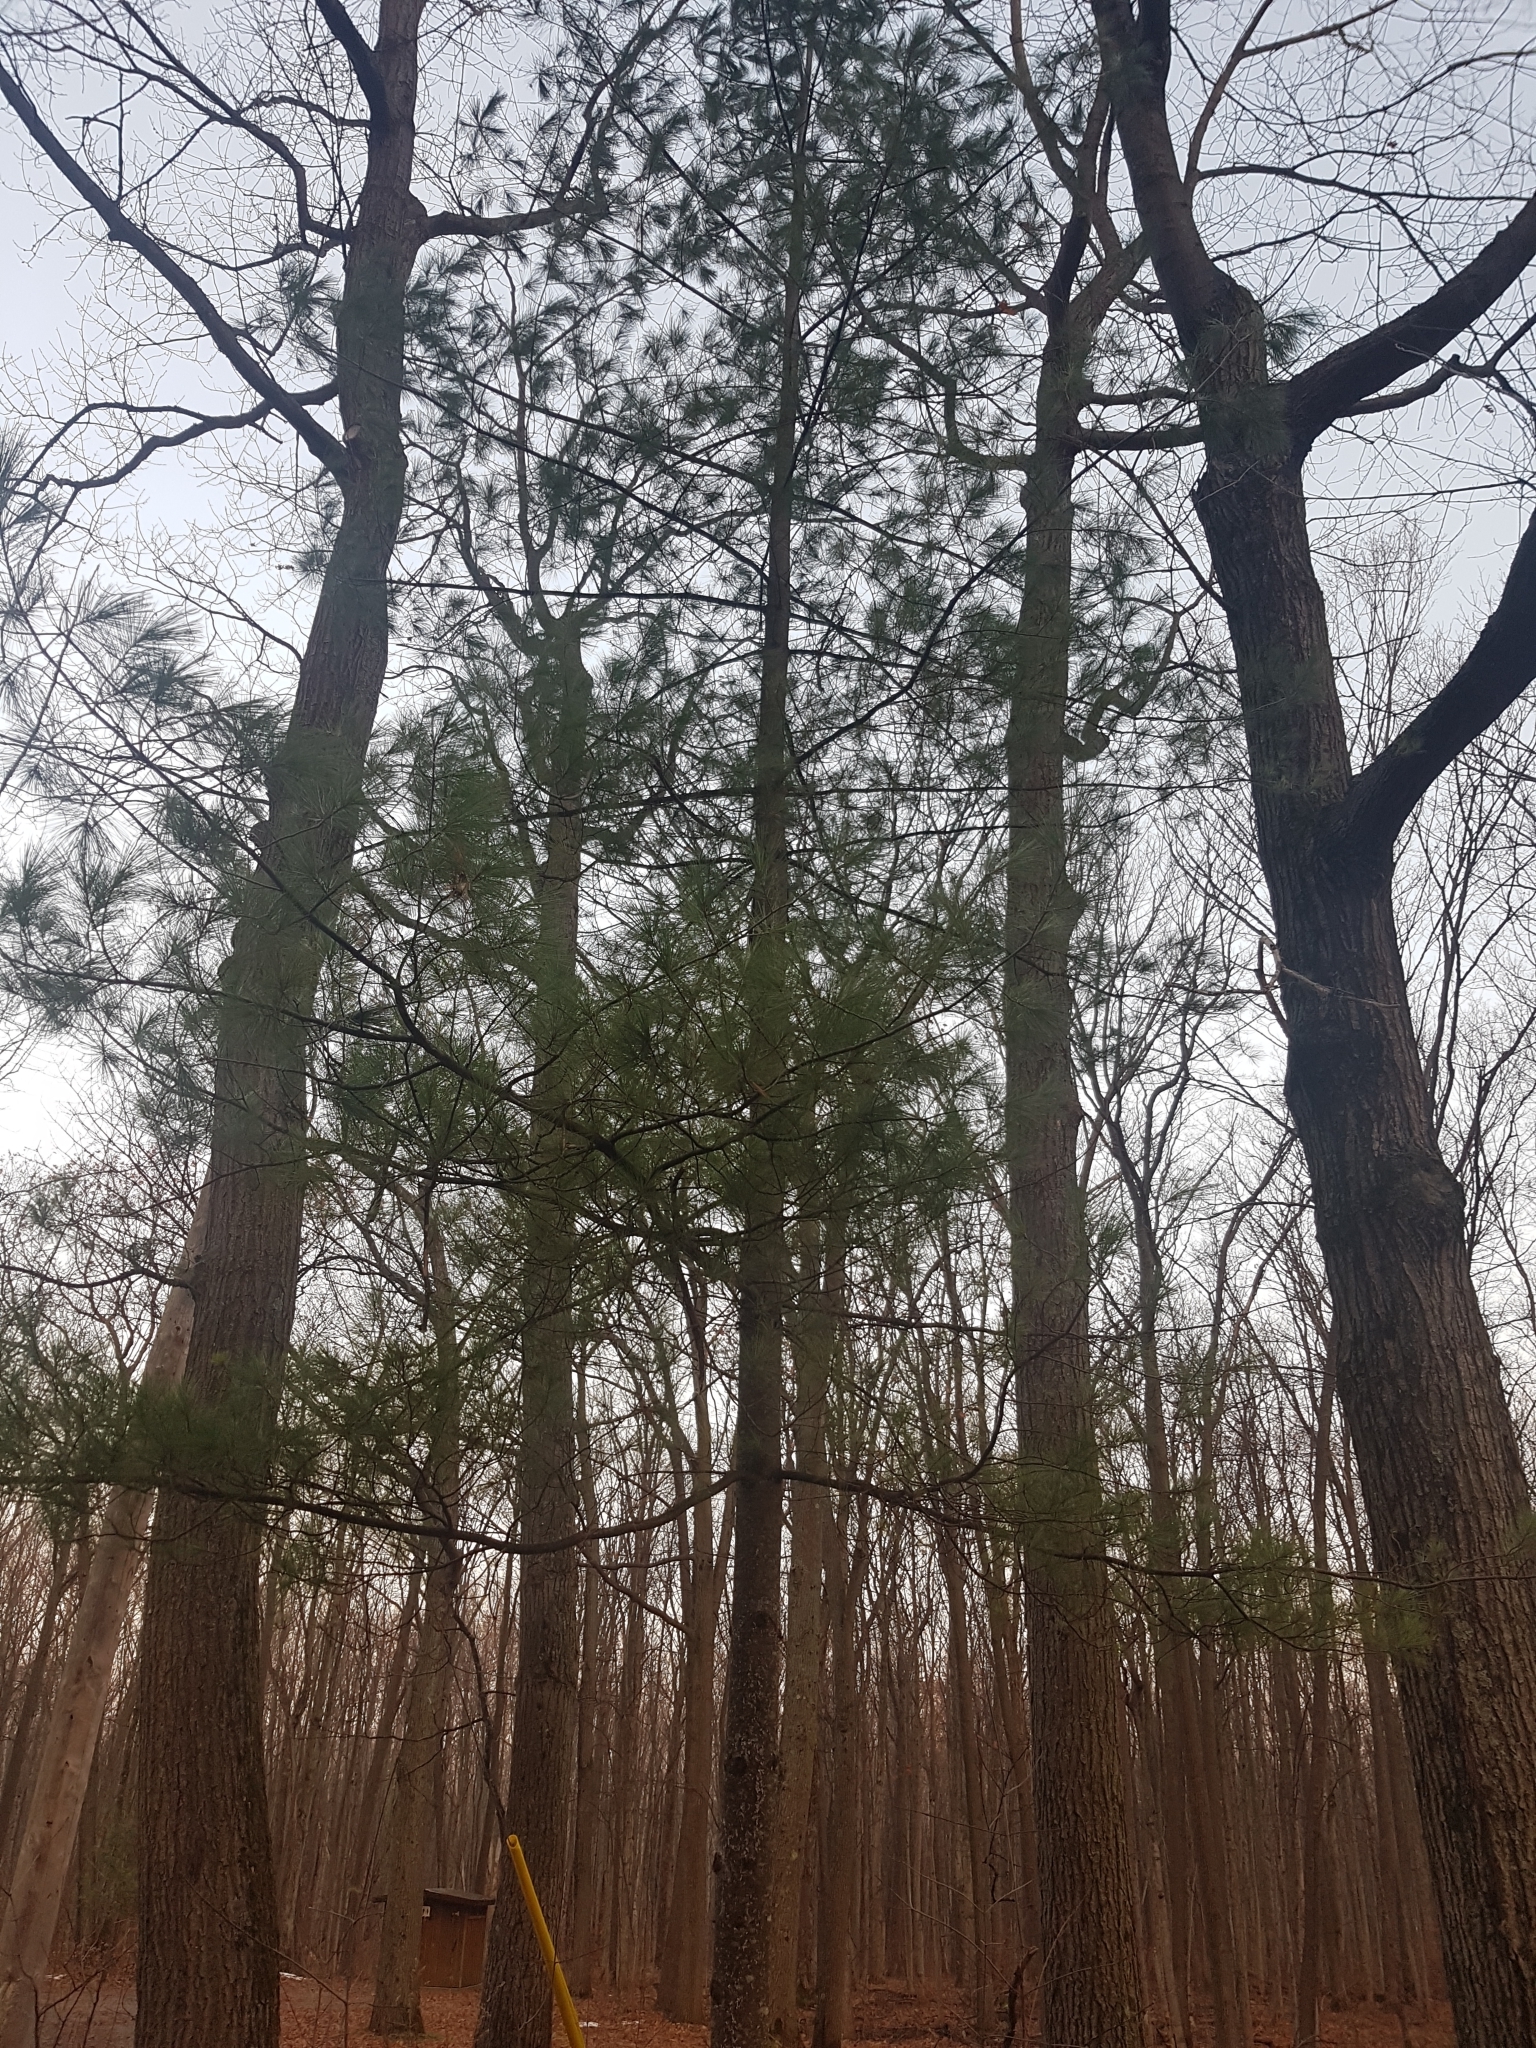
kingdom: Plantae
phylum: Tracheophyta
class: Pinopsida
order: Pinales
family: Pinaceae
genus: Pinus
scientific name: Pinus strobus
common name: Weymouth pine
